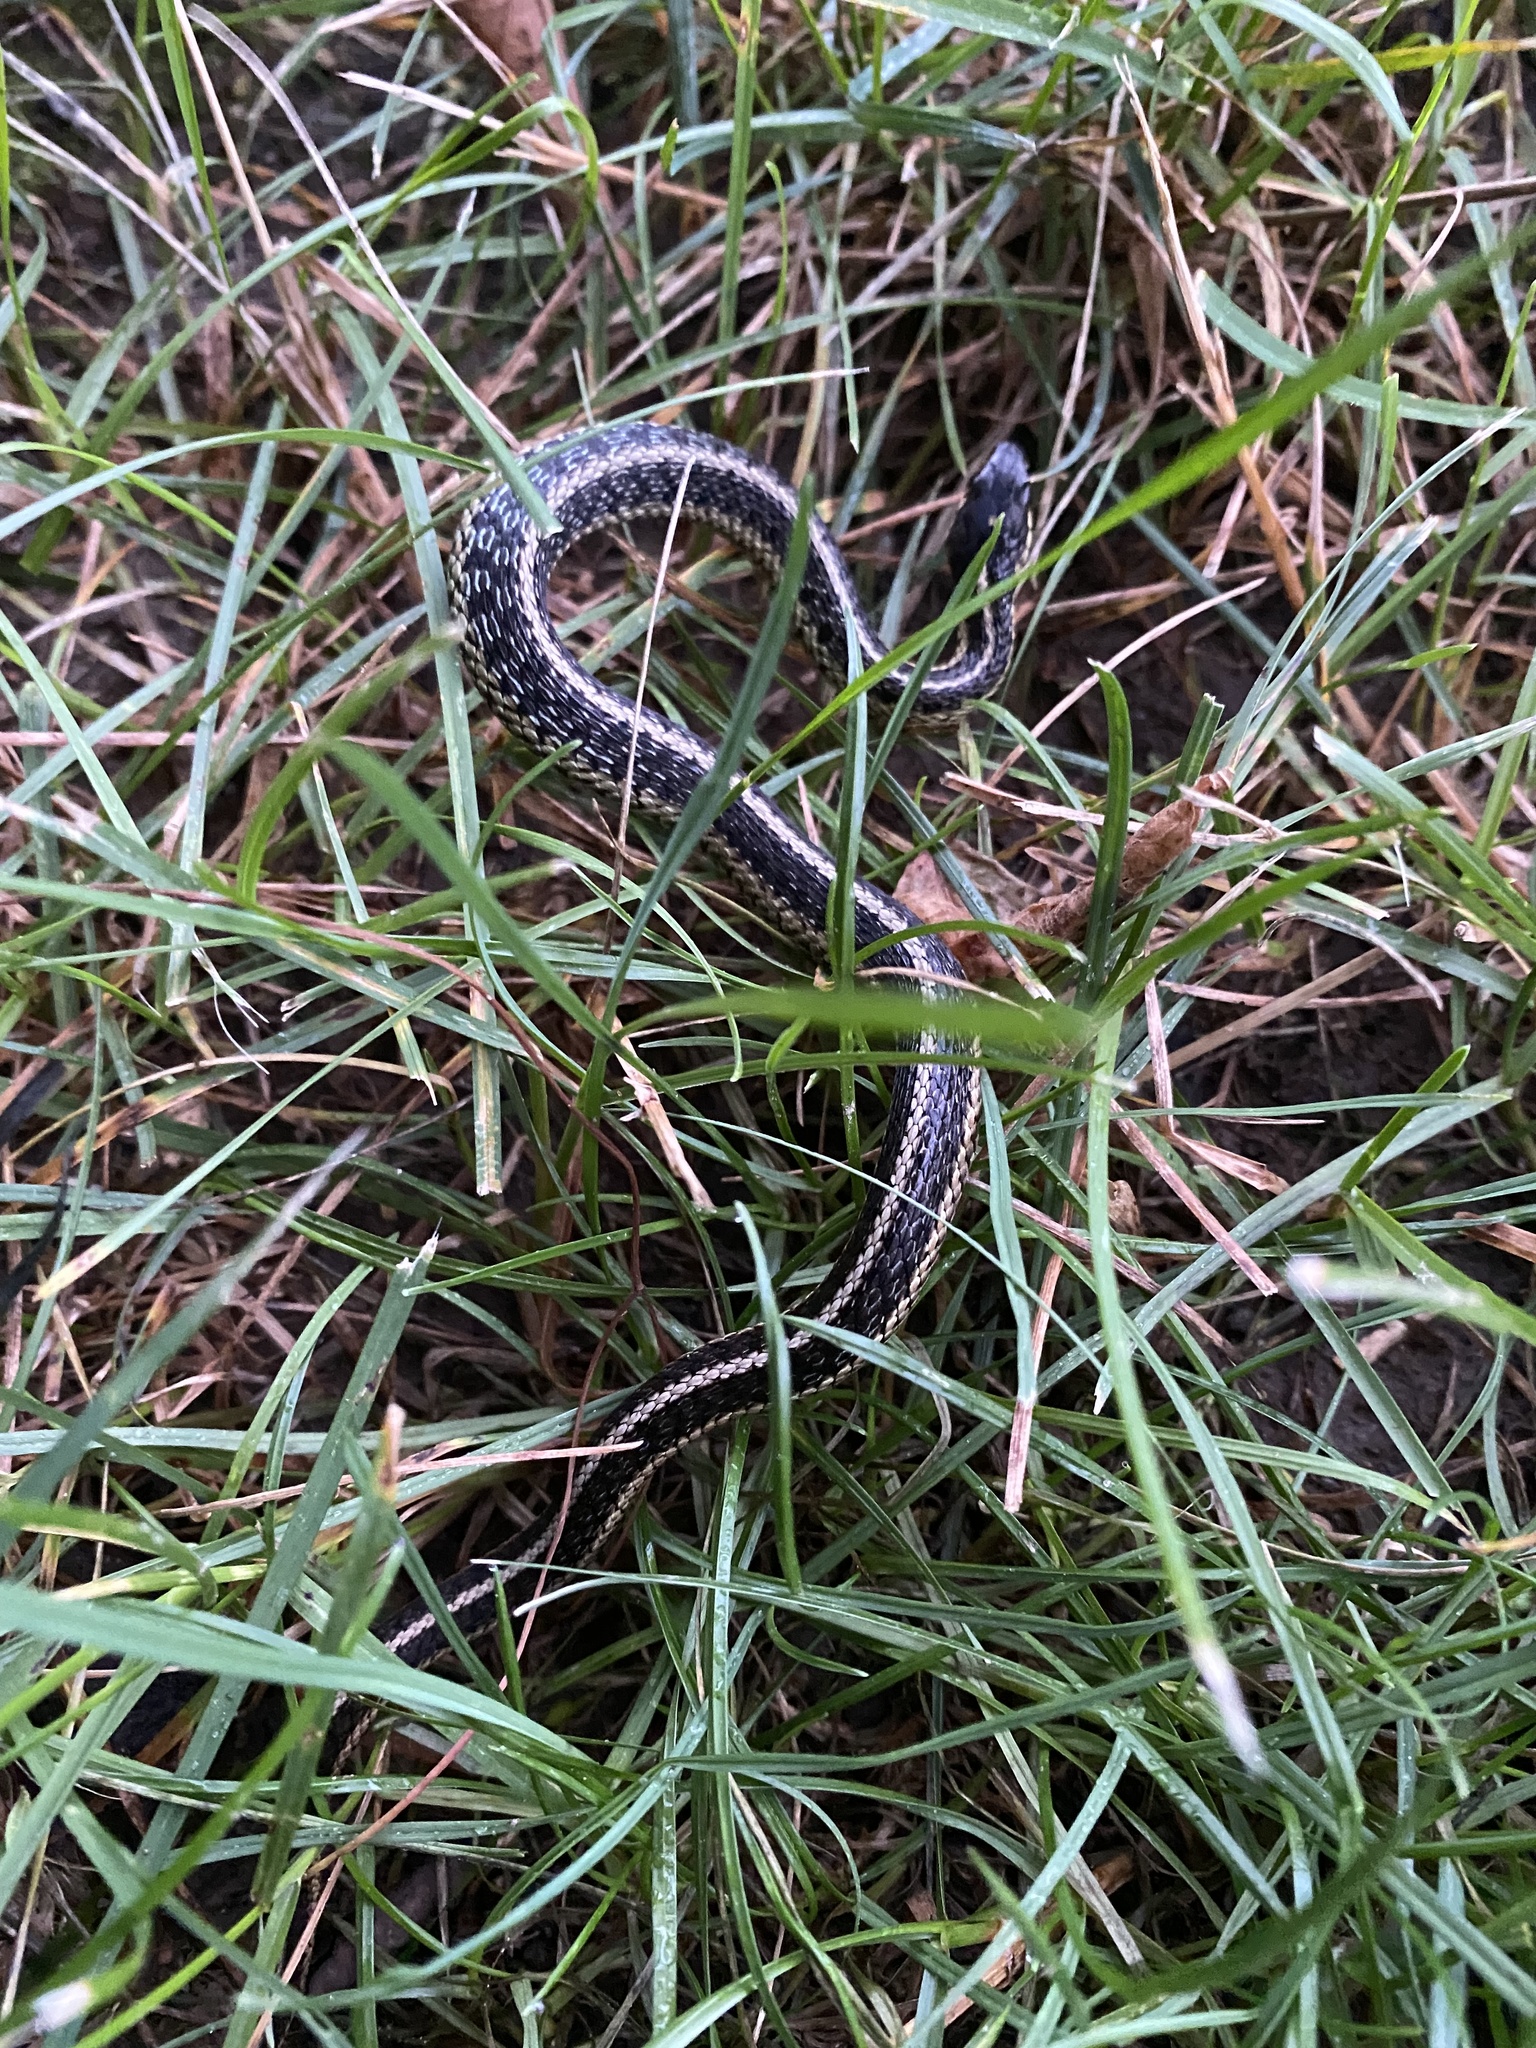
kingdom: Animalia
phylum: Chordata
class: Squamata
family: Colubridae
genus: Thamnophis
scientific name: Thamnophis sirtalis
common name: Common garter snake
